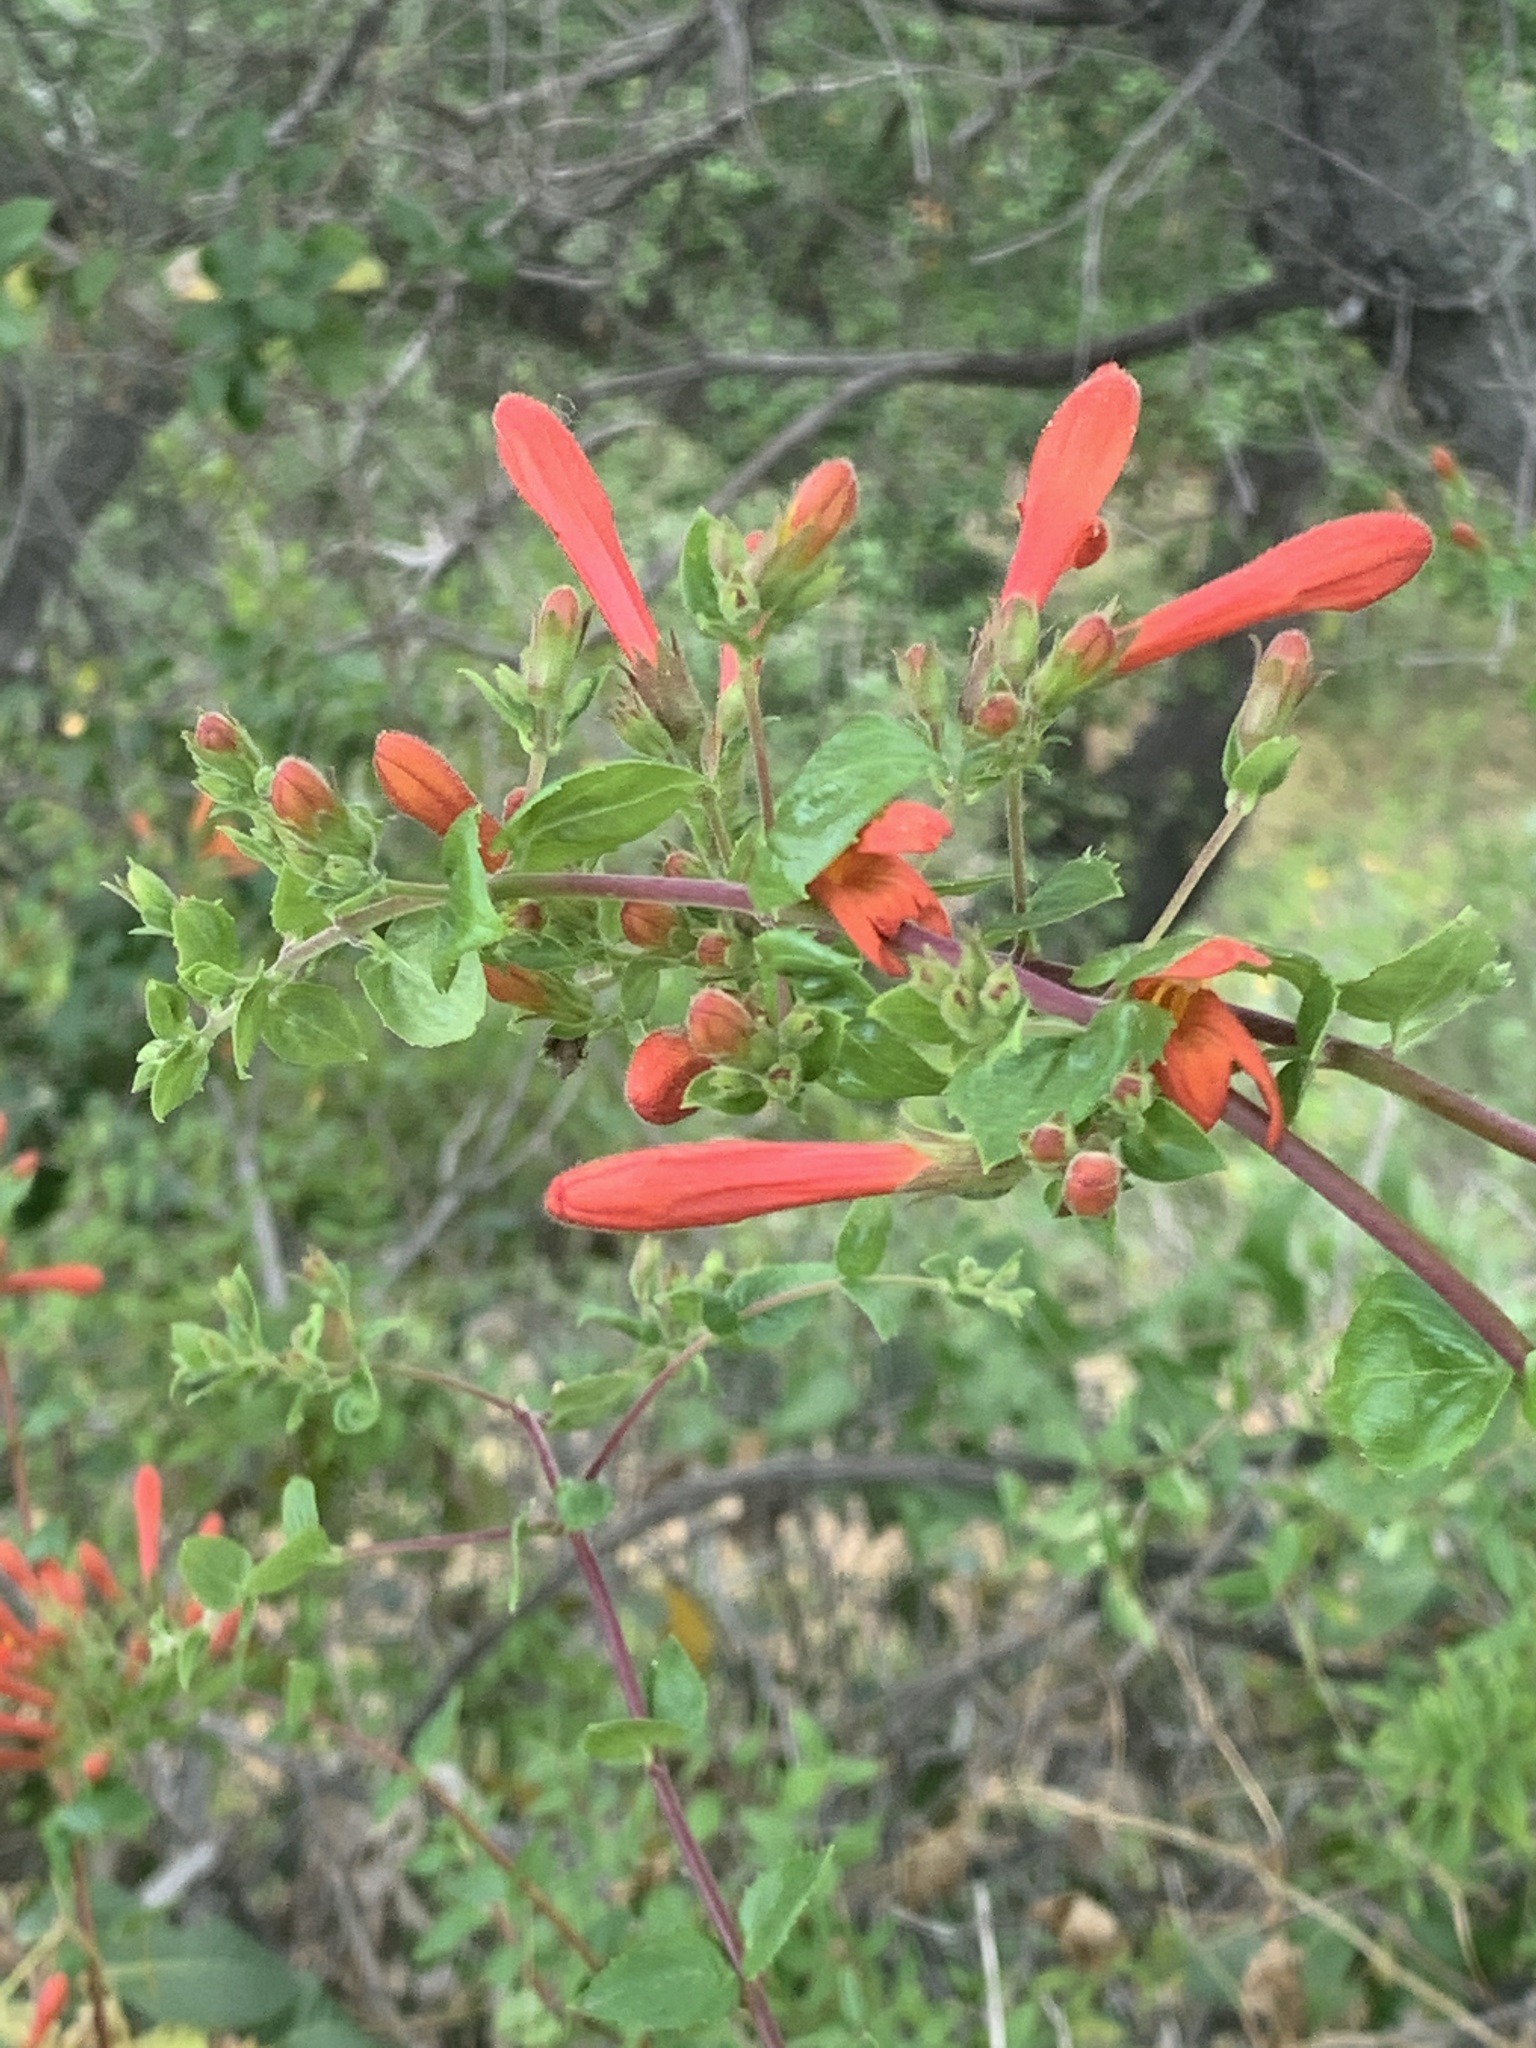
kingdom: Plantae
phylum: Tracheophyta
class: Magnoliopsida
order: Lamiales
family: Plantaginaceae
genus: Keckiella
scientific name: Keckiella cordifolia
